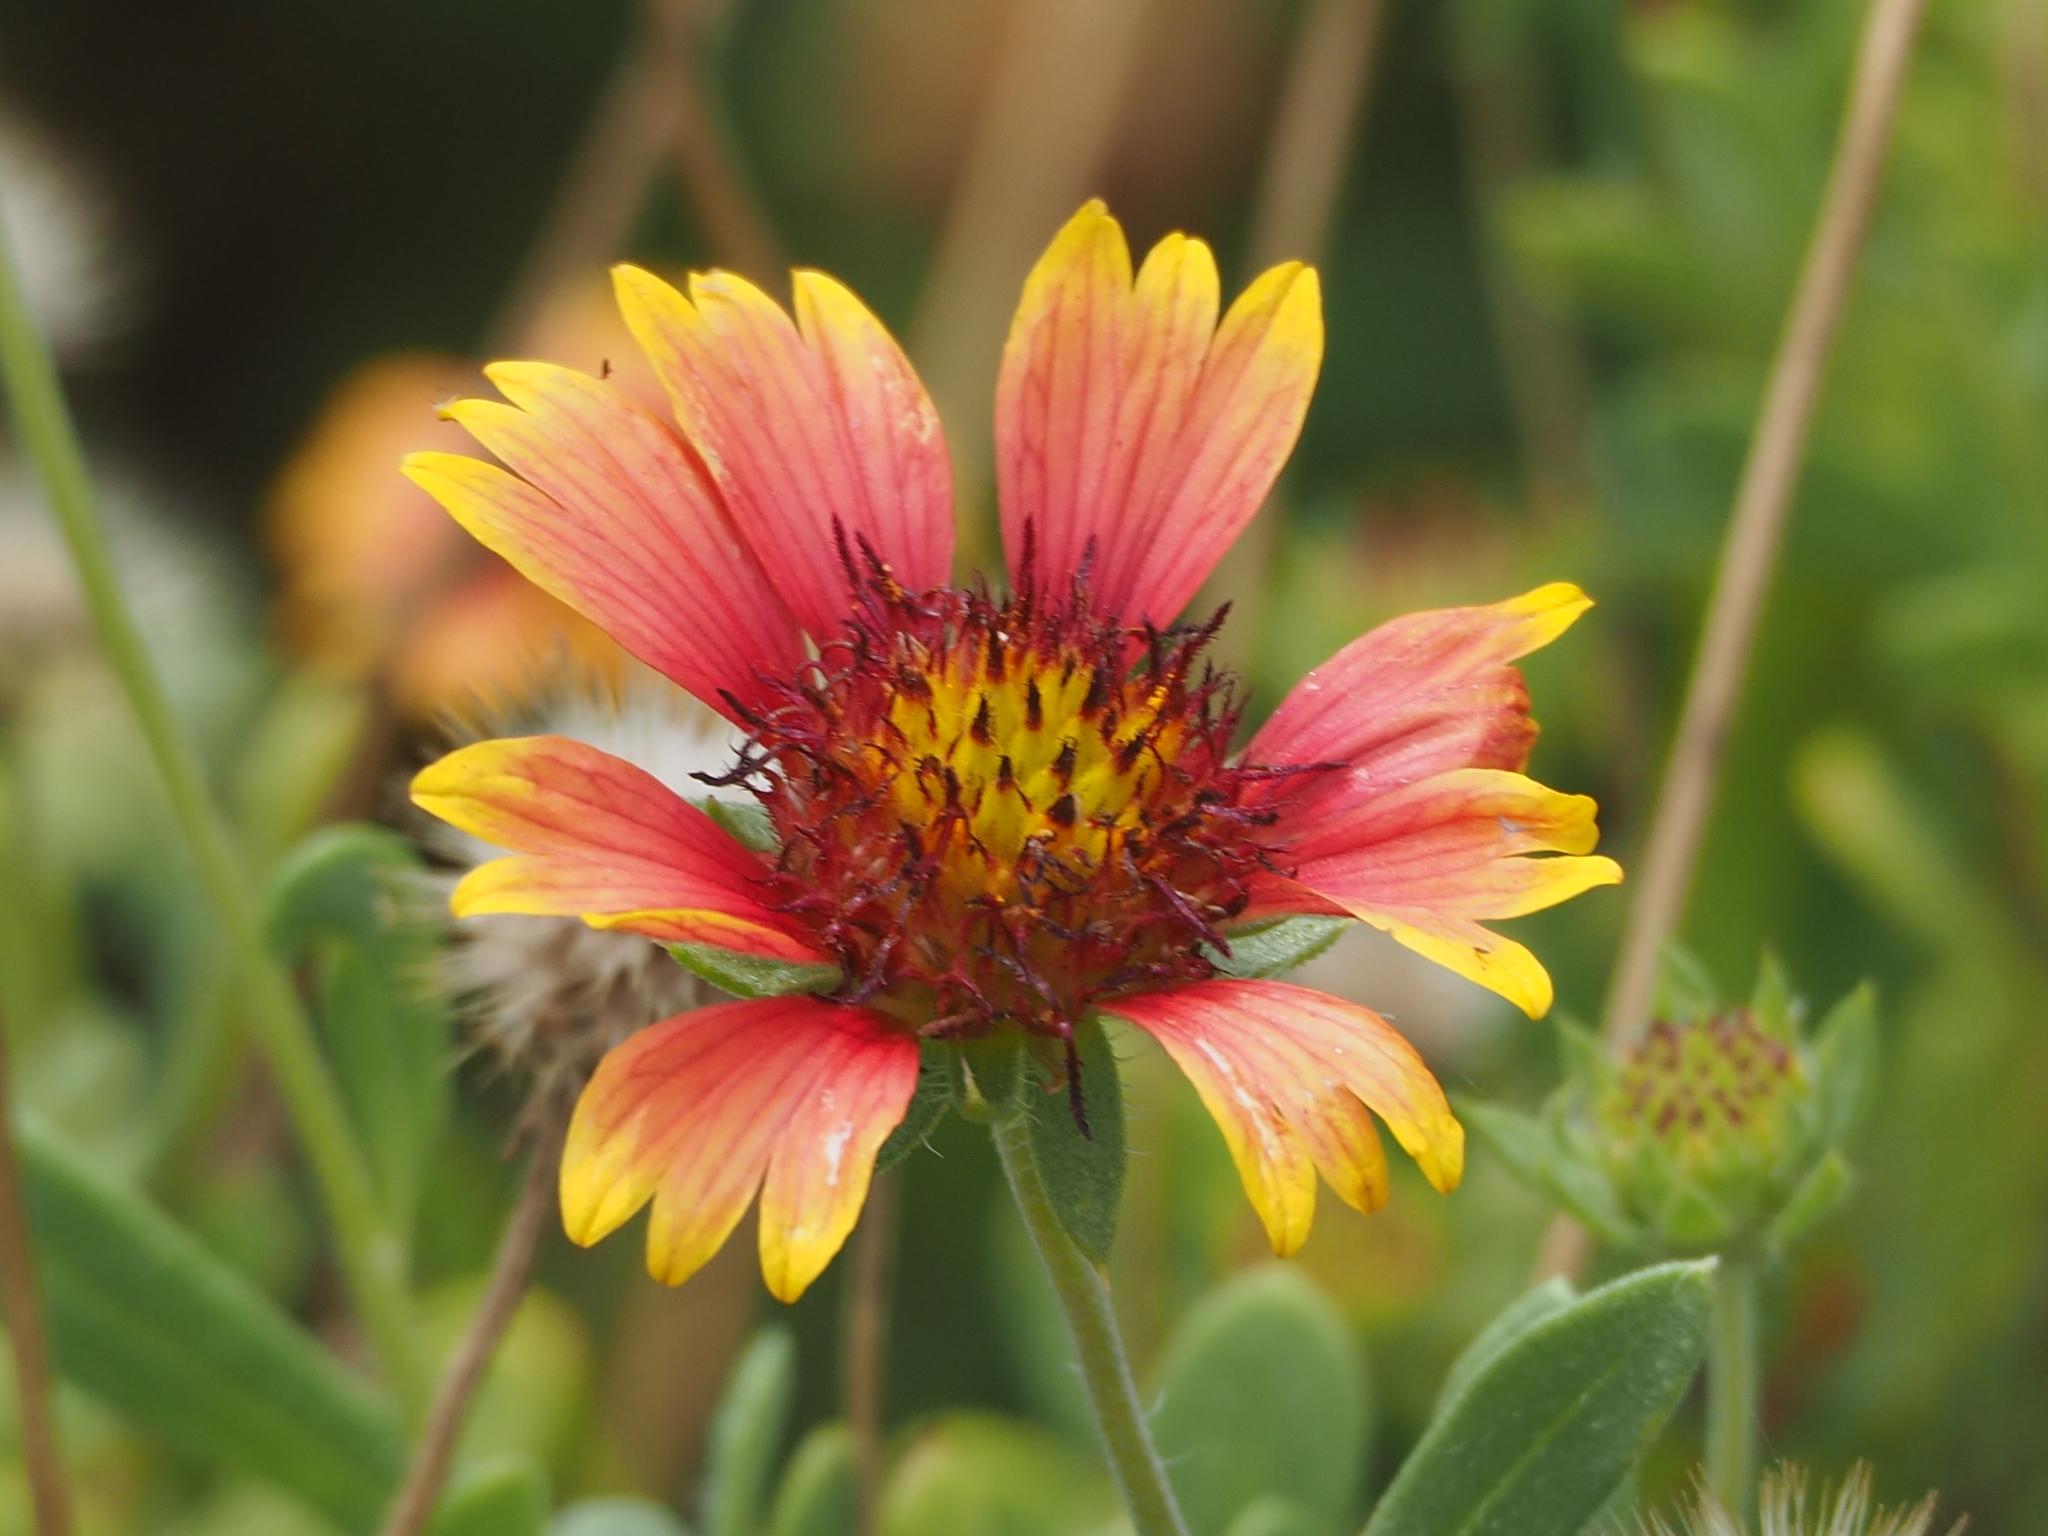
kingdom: Plantae
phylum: Tracheophyta
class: Magnoliopsida
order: Asterales
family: Asteraceae
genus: Gaillardia
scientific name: Gaillardia pulchella
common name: Firewheel
